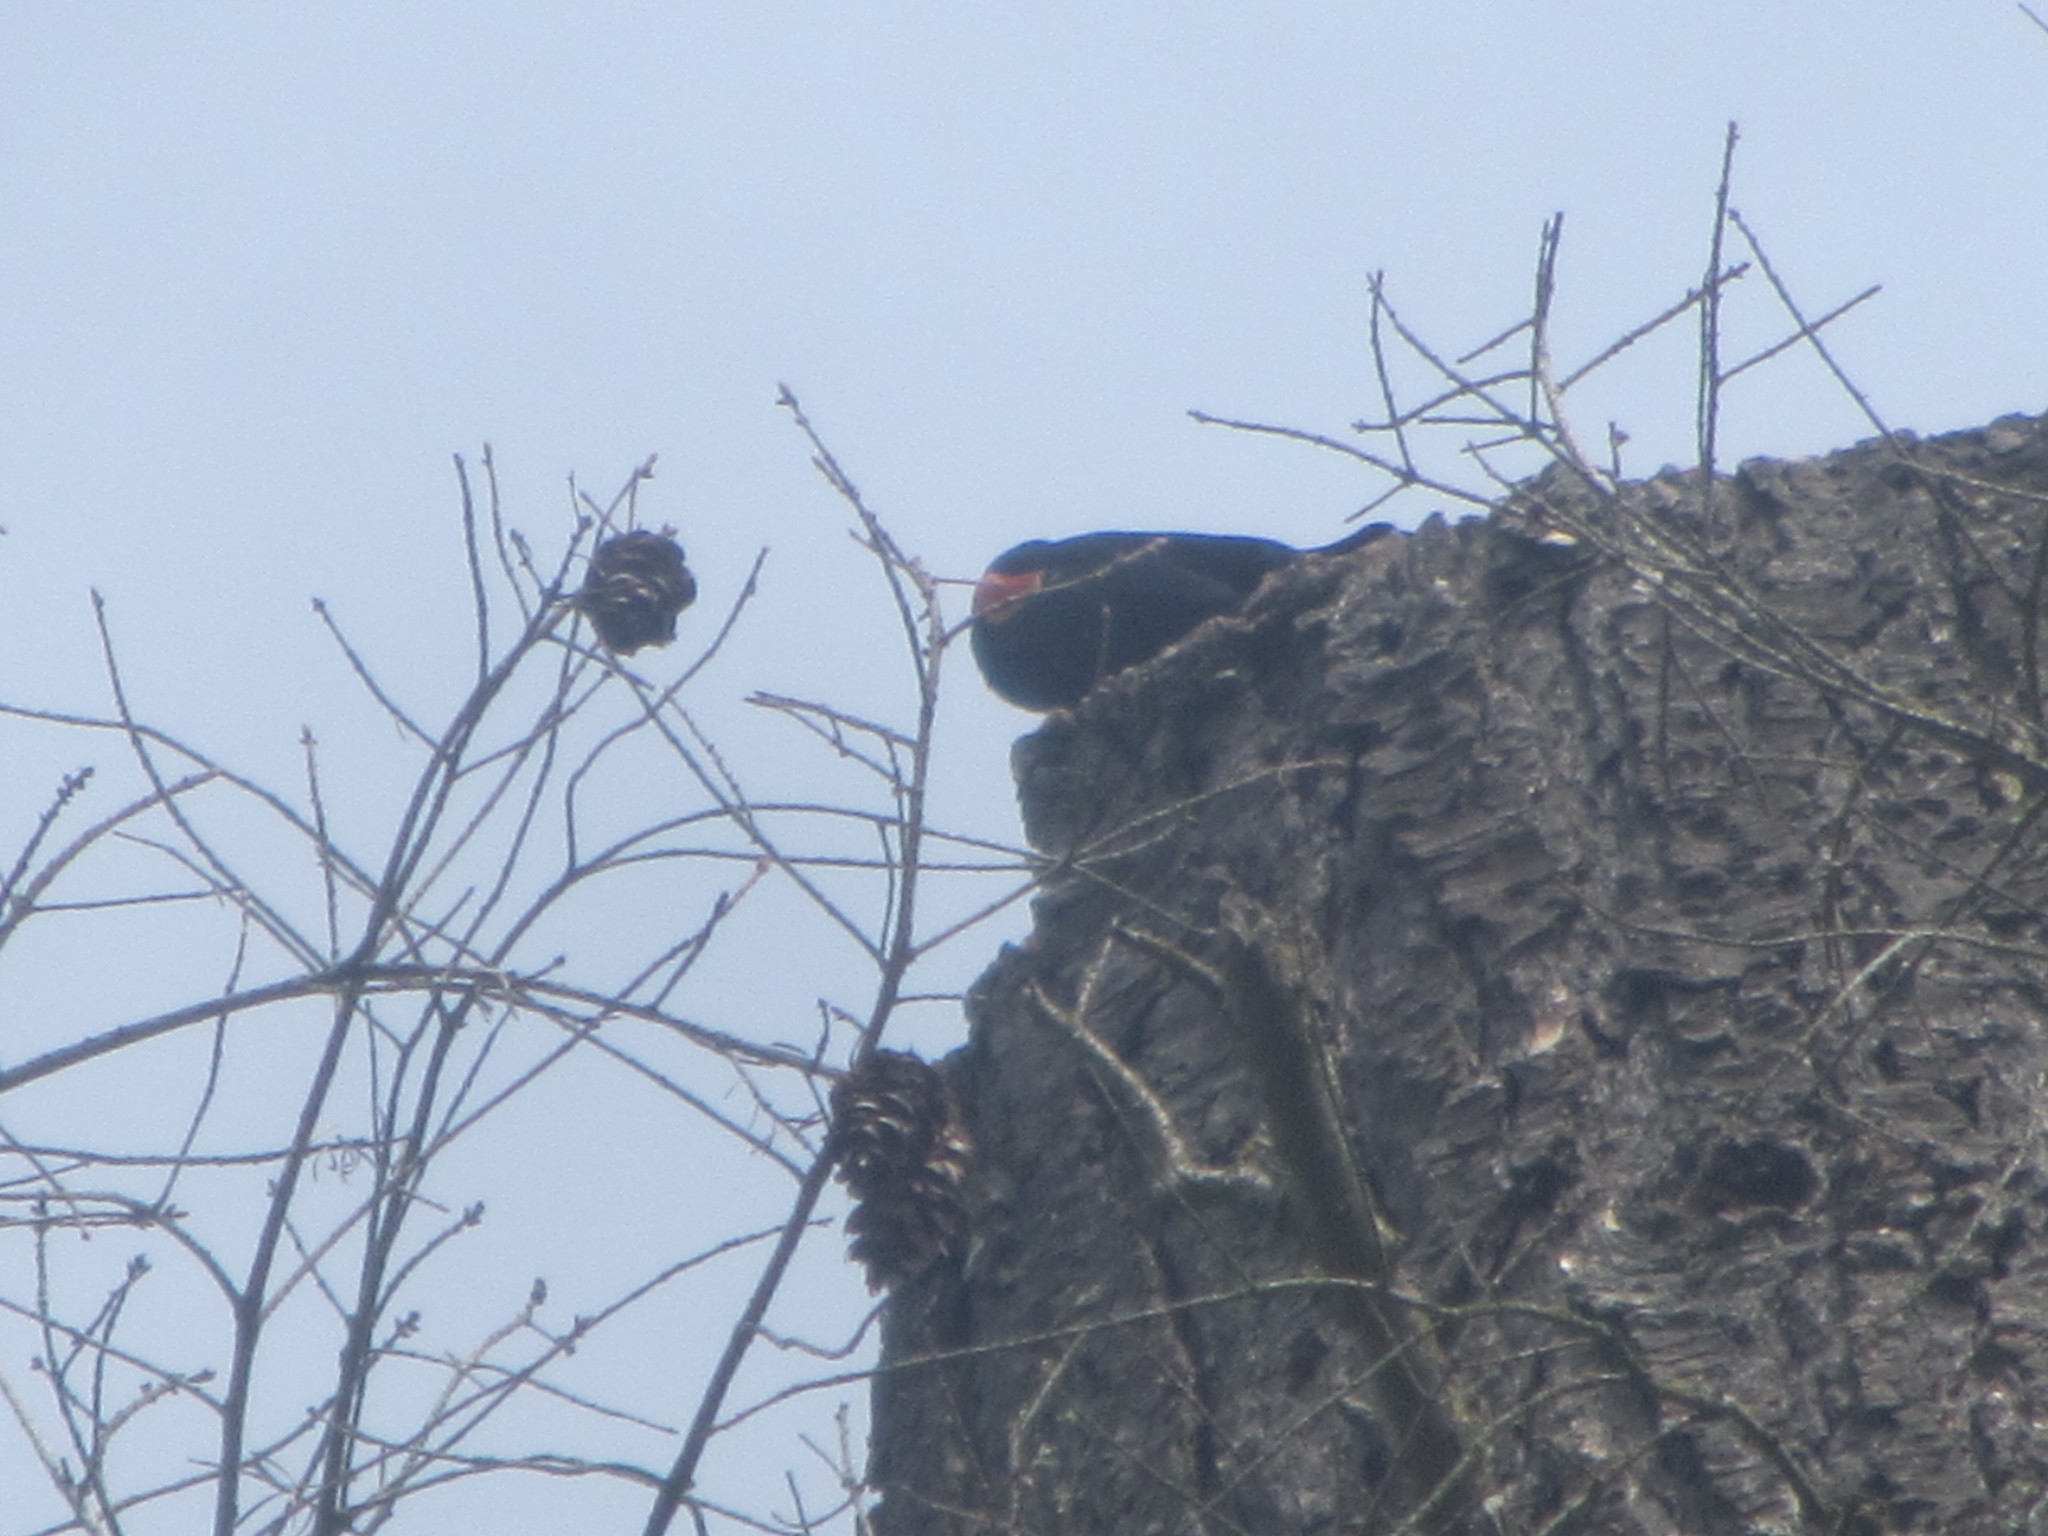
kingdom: Animalia
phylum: Chordata
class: Aves
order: Passeriformes
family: Icteridae
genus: Agelaius
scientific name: Agelaius phoeniceus
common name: Red-winged blackbird
